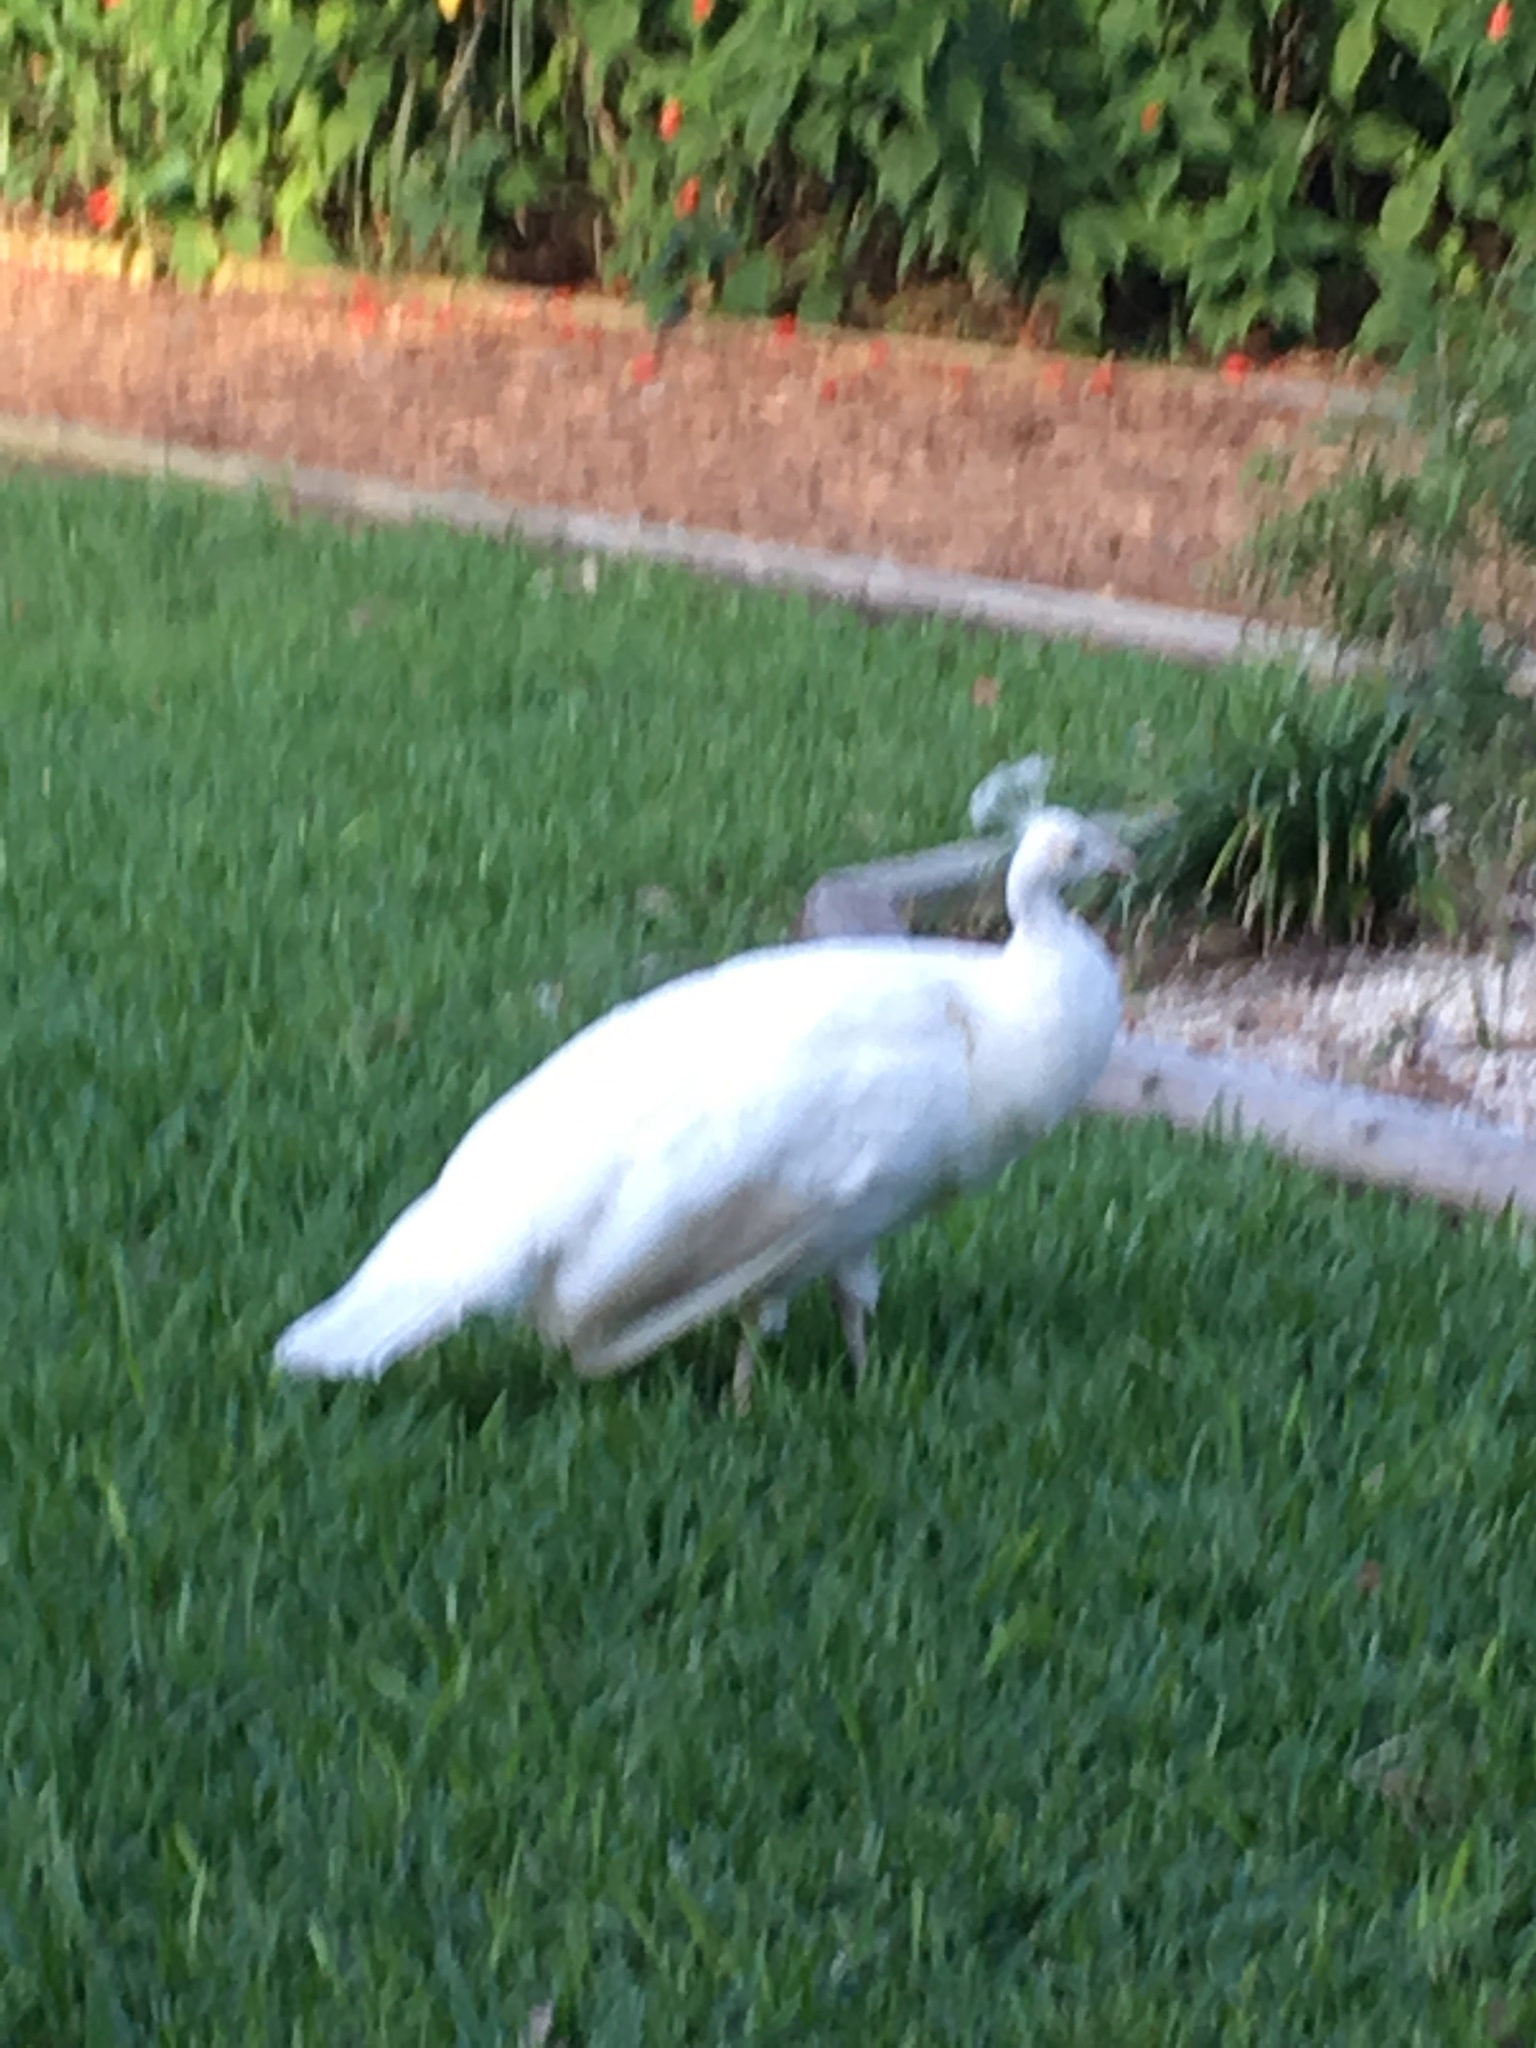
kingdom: Animalia
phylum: Chordata
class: Aves
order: Galliformes
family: Phasianidae
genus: Pavo
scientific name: Pavo cristatus
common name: Indian peafowl
